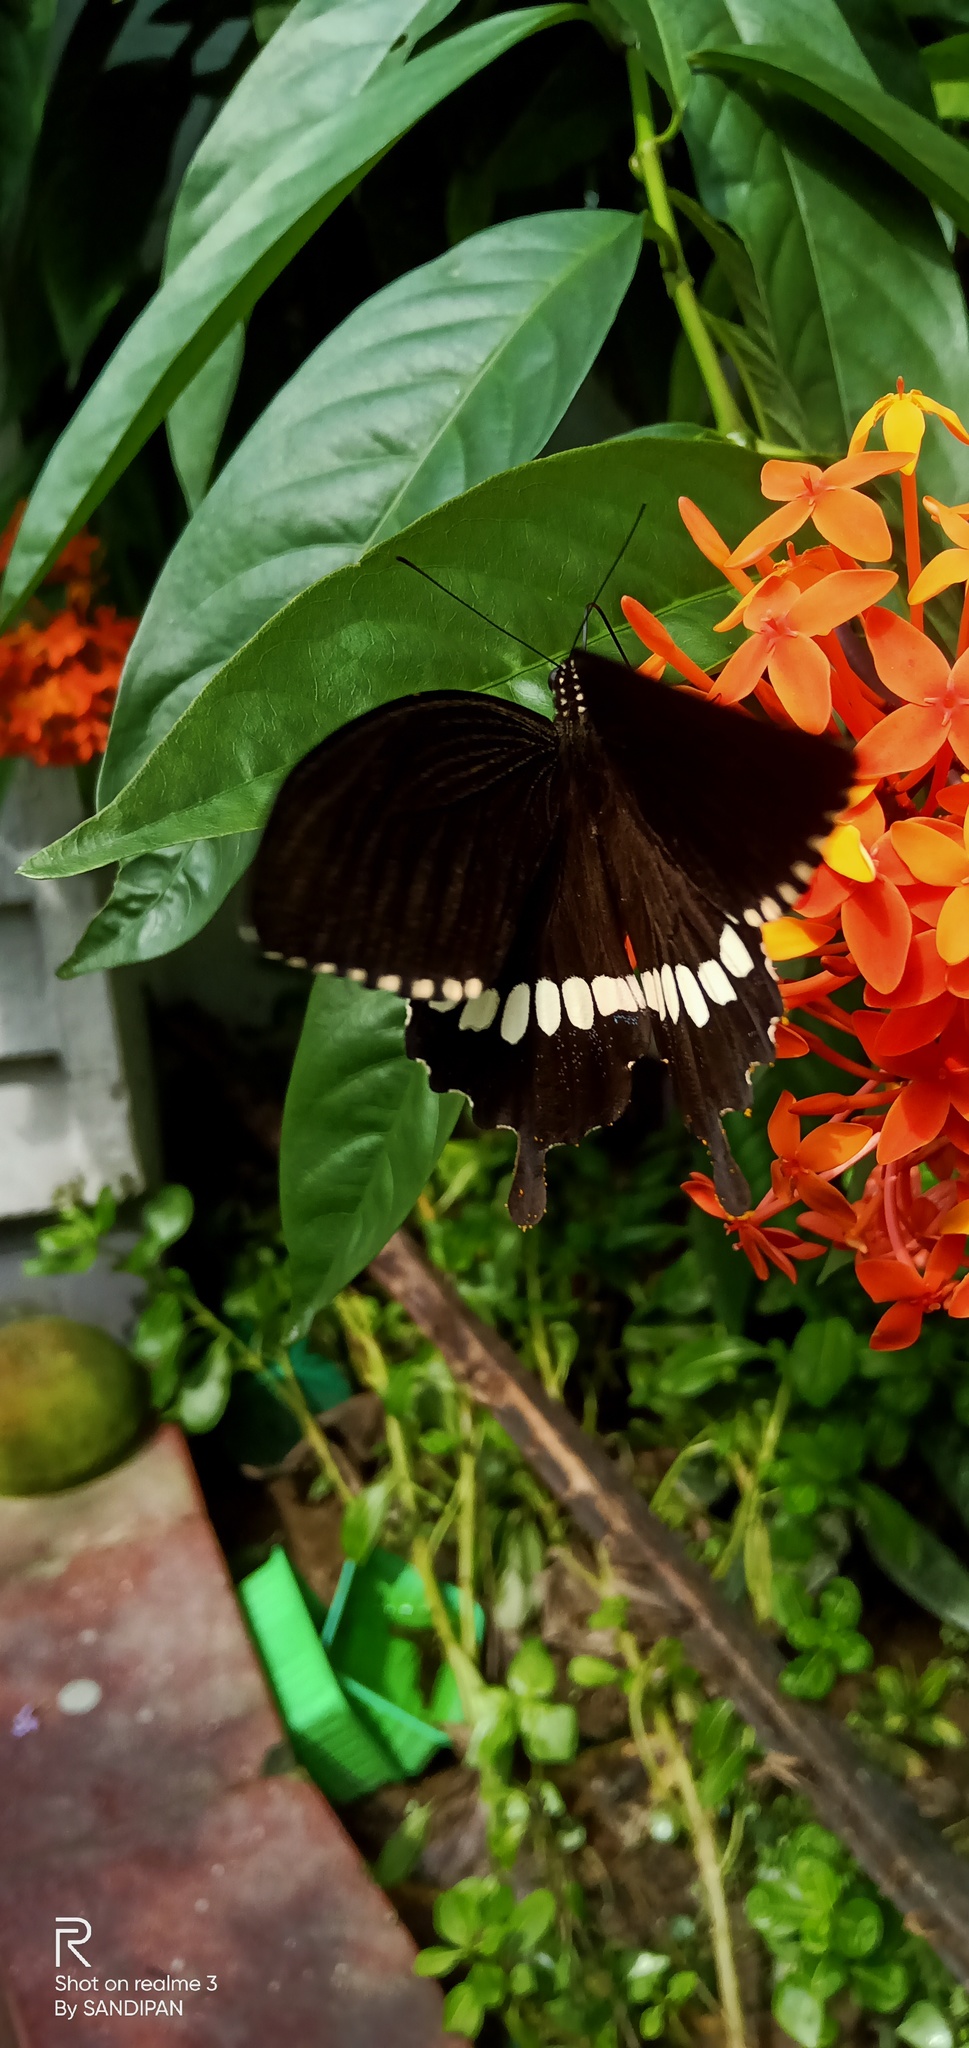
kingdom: Animalia
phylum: Arthropoda
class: Insecta
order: Lepidoptera
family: Papilionidae
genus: Papilio
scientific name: Papilio polytes
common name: Common mormon
